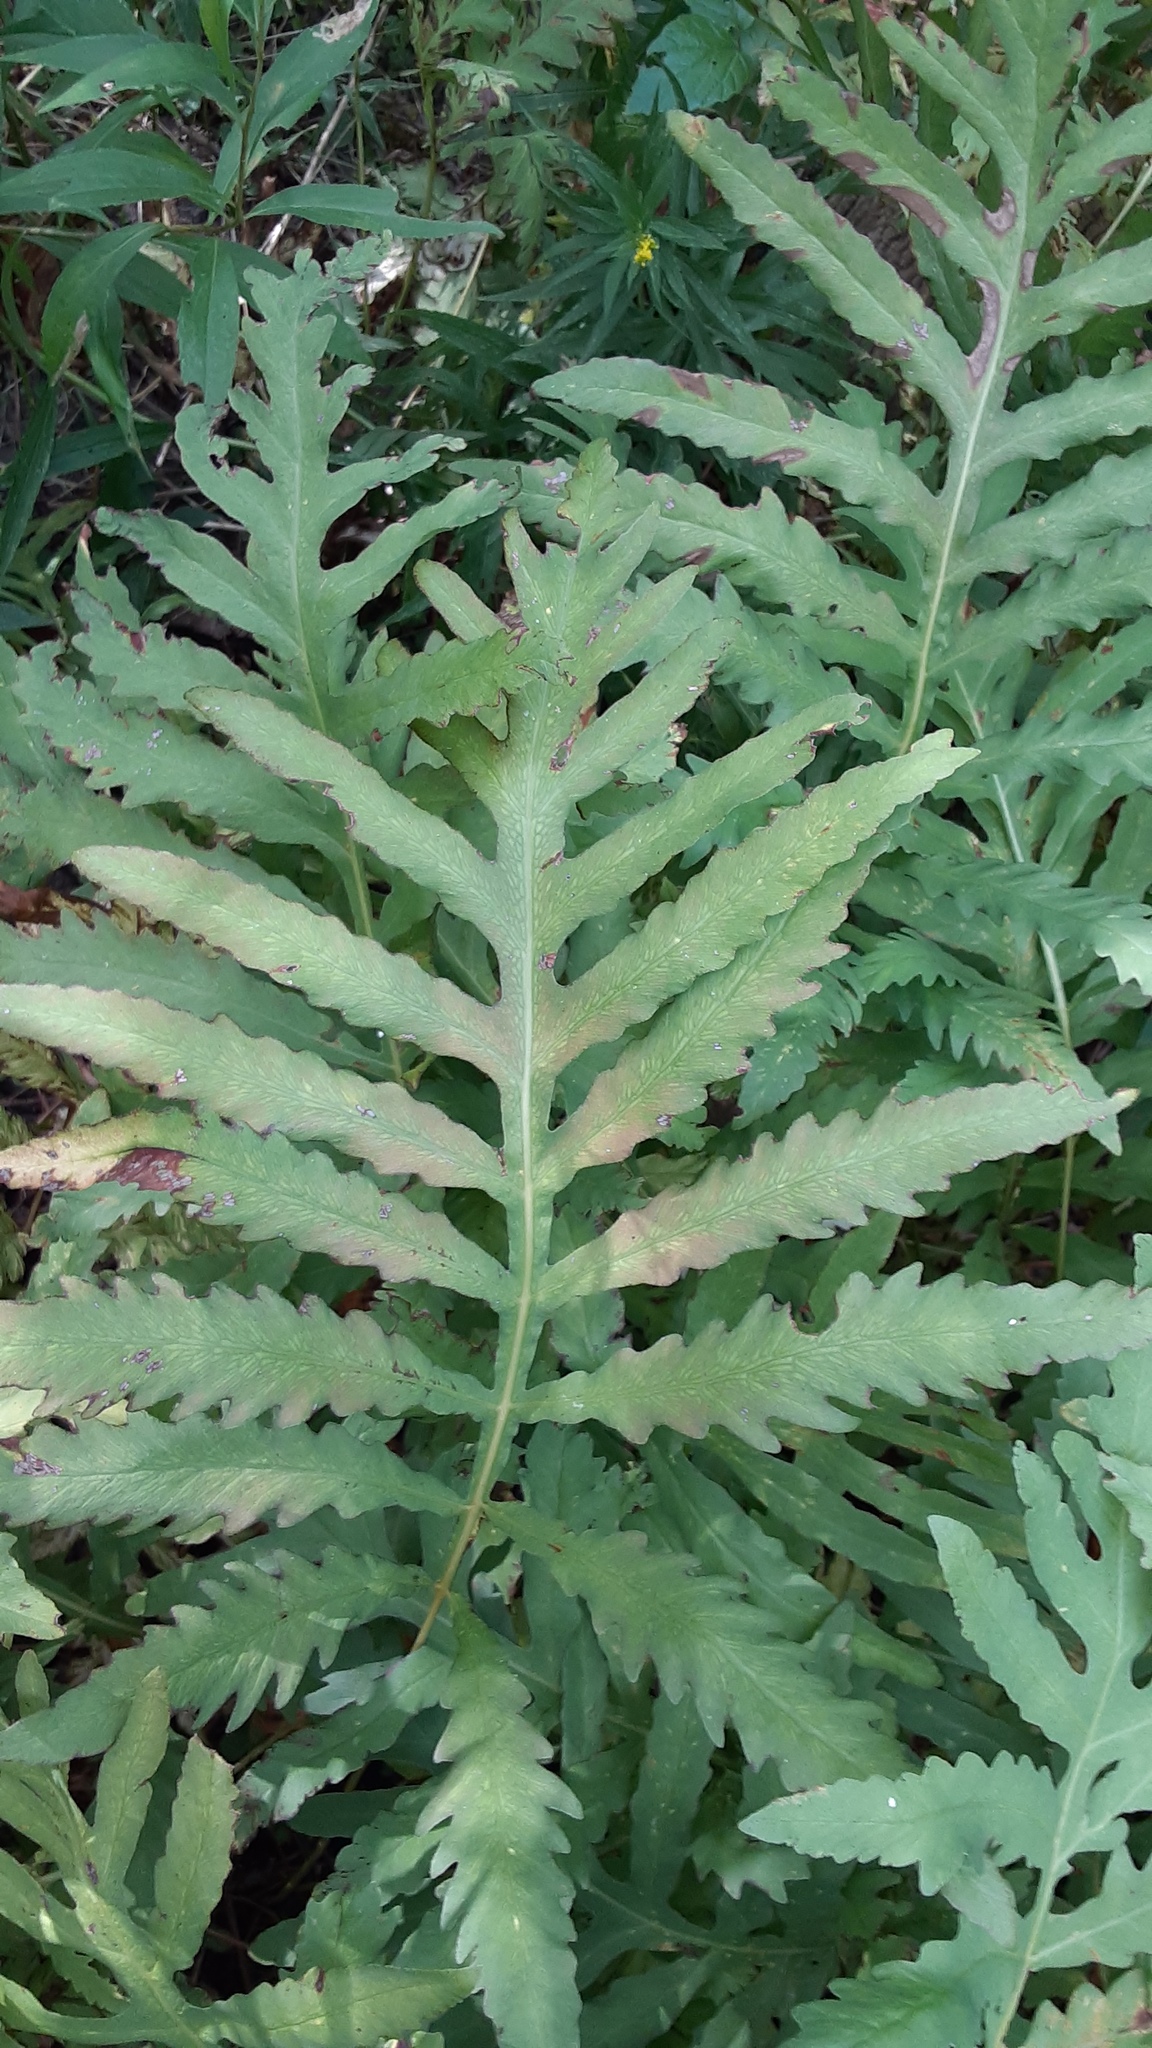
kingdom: Plantae
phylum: Tracheophyta
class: Polypodiopsida
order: Polypodiales
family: Onocleaceae
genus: Onoclea
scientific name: Onoclea sensibilis
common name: Sensitive fern
